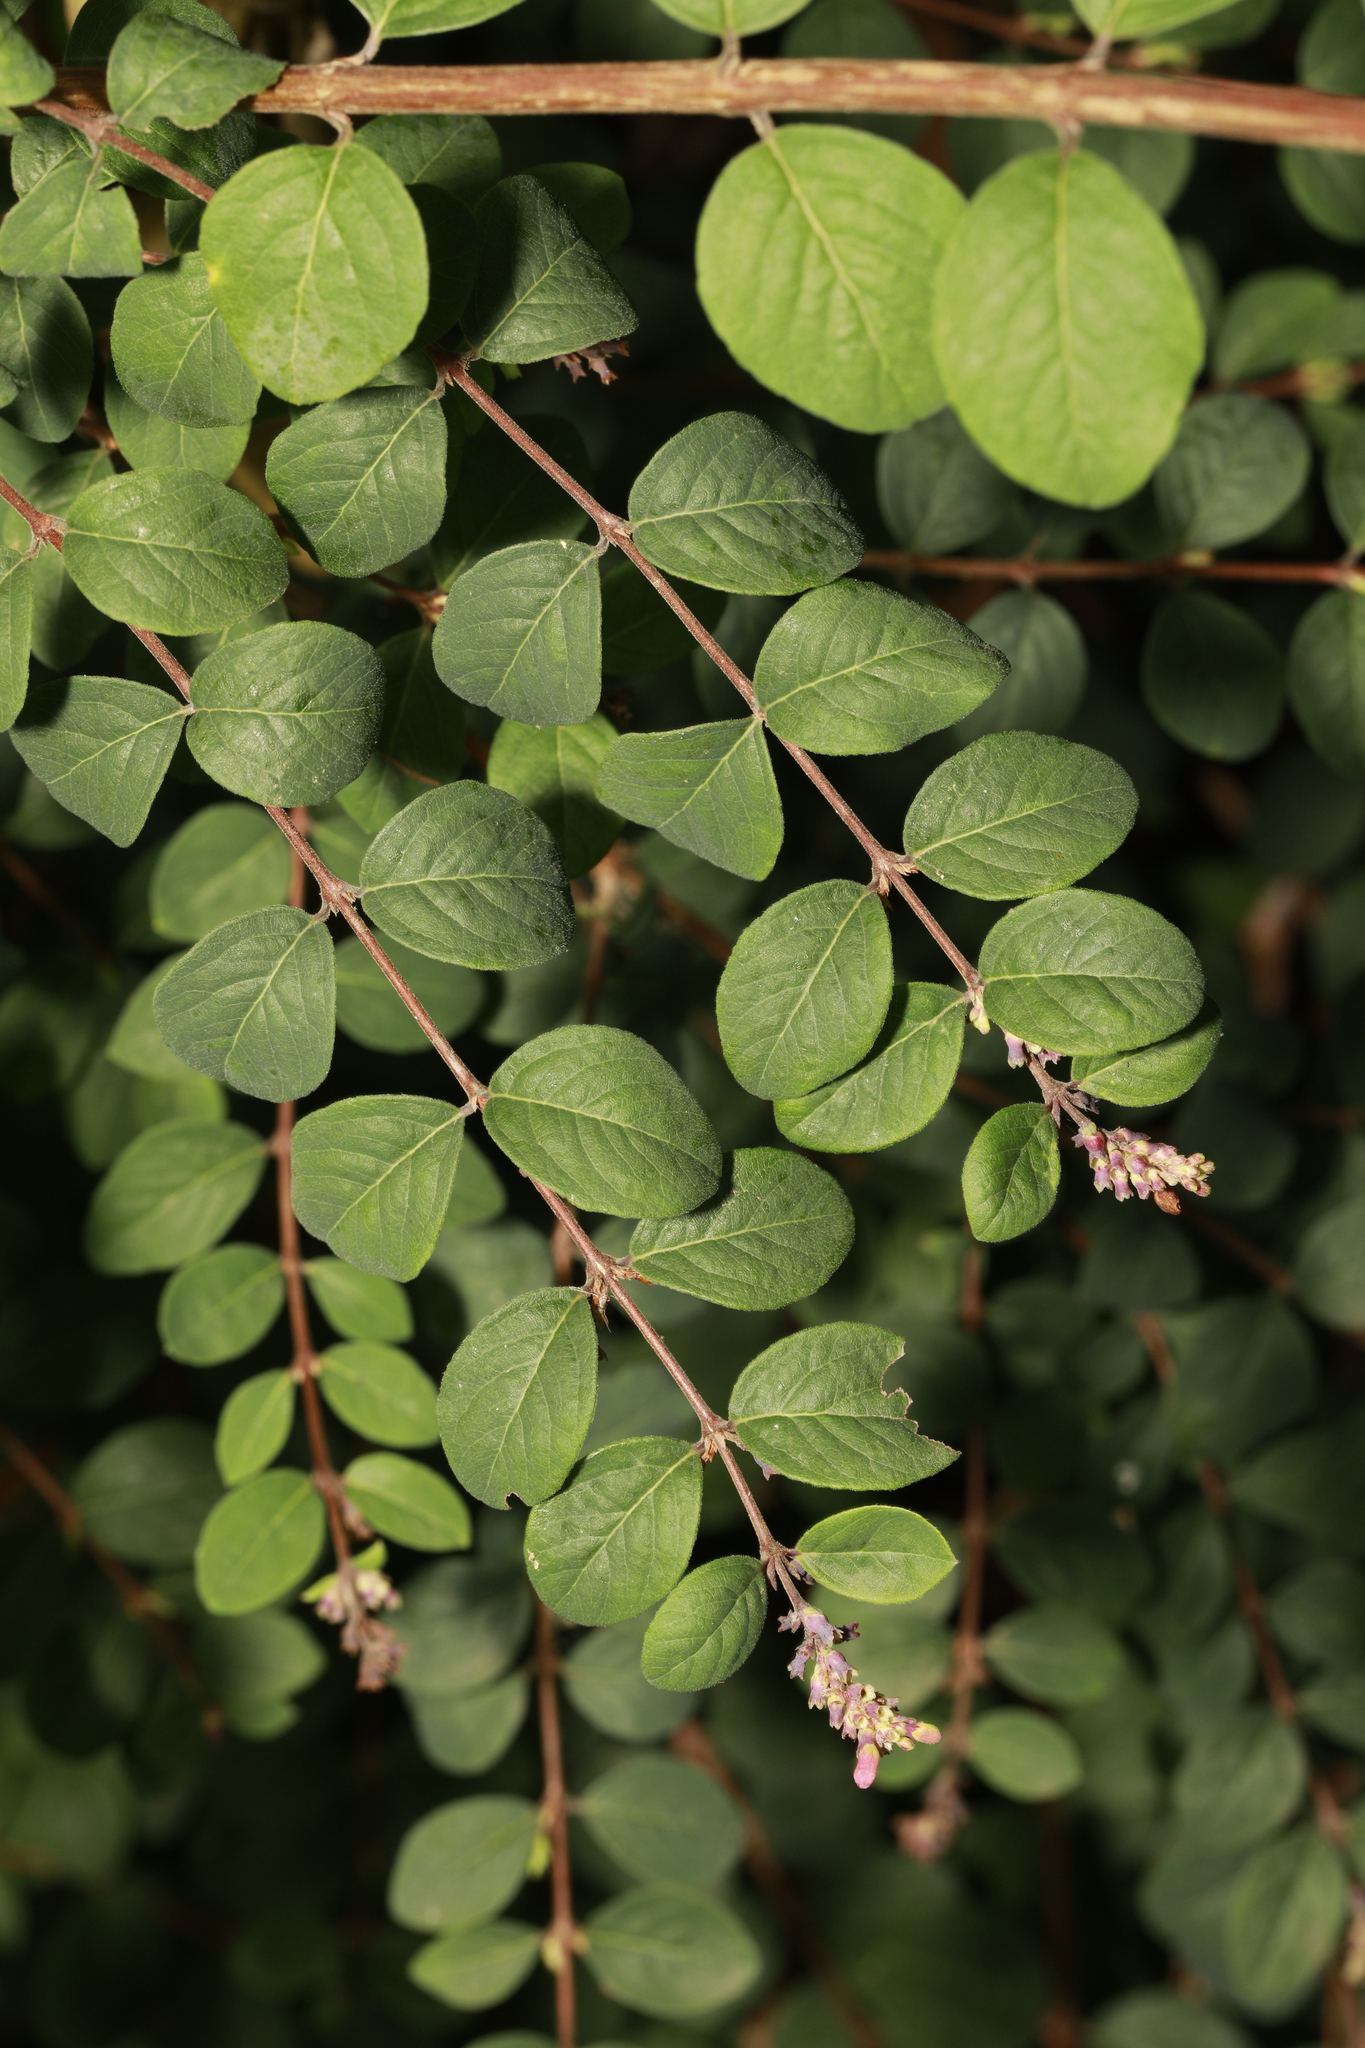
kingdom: Plantae
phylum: Tracheophyta
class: Magnoliopsida
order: Dipsacales
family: Caprifoliaceae
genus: Symphoricarpos
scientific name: Symphoricarpos chenaultii
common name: Hybrid coralberry
